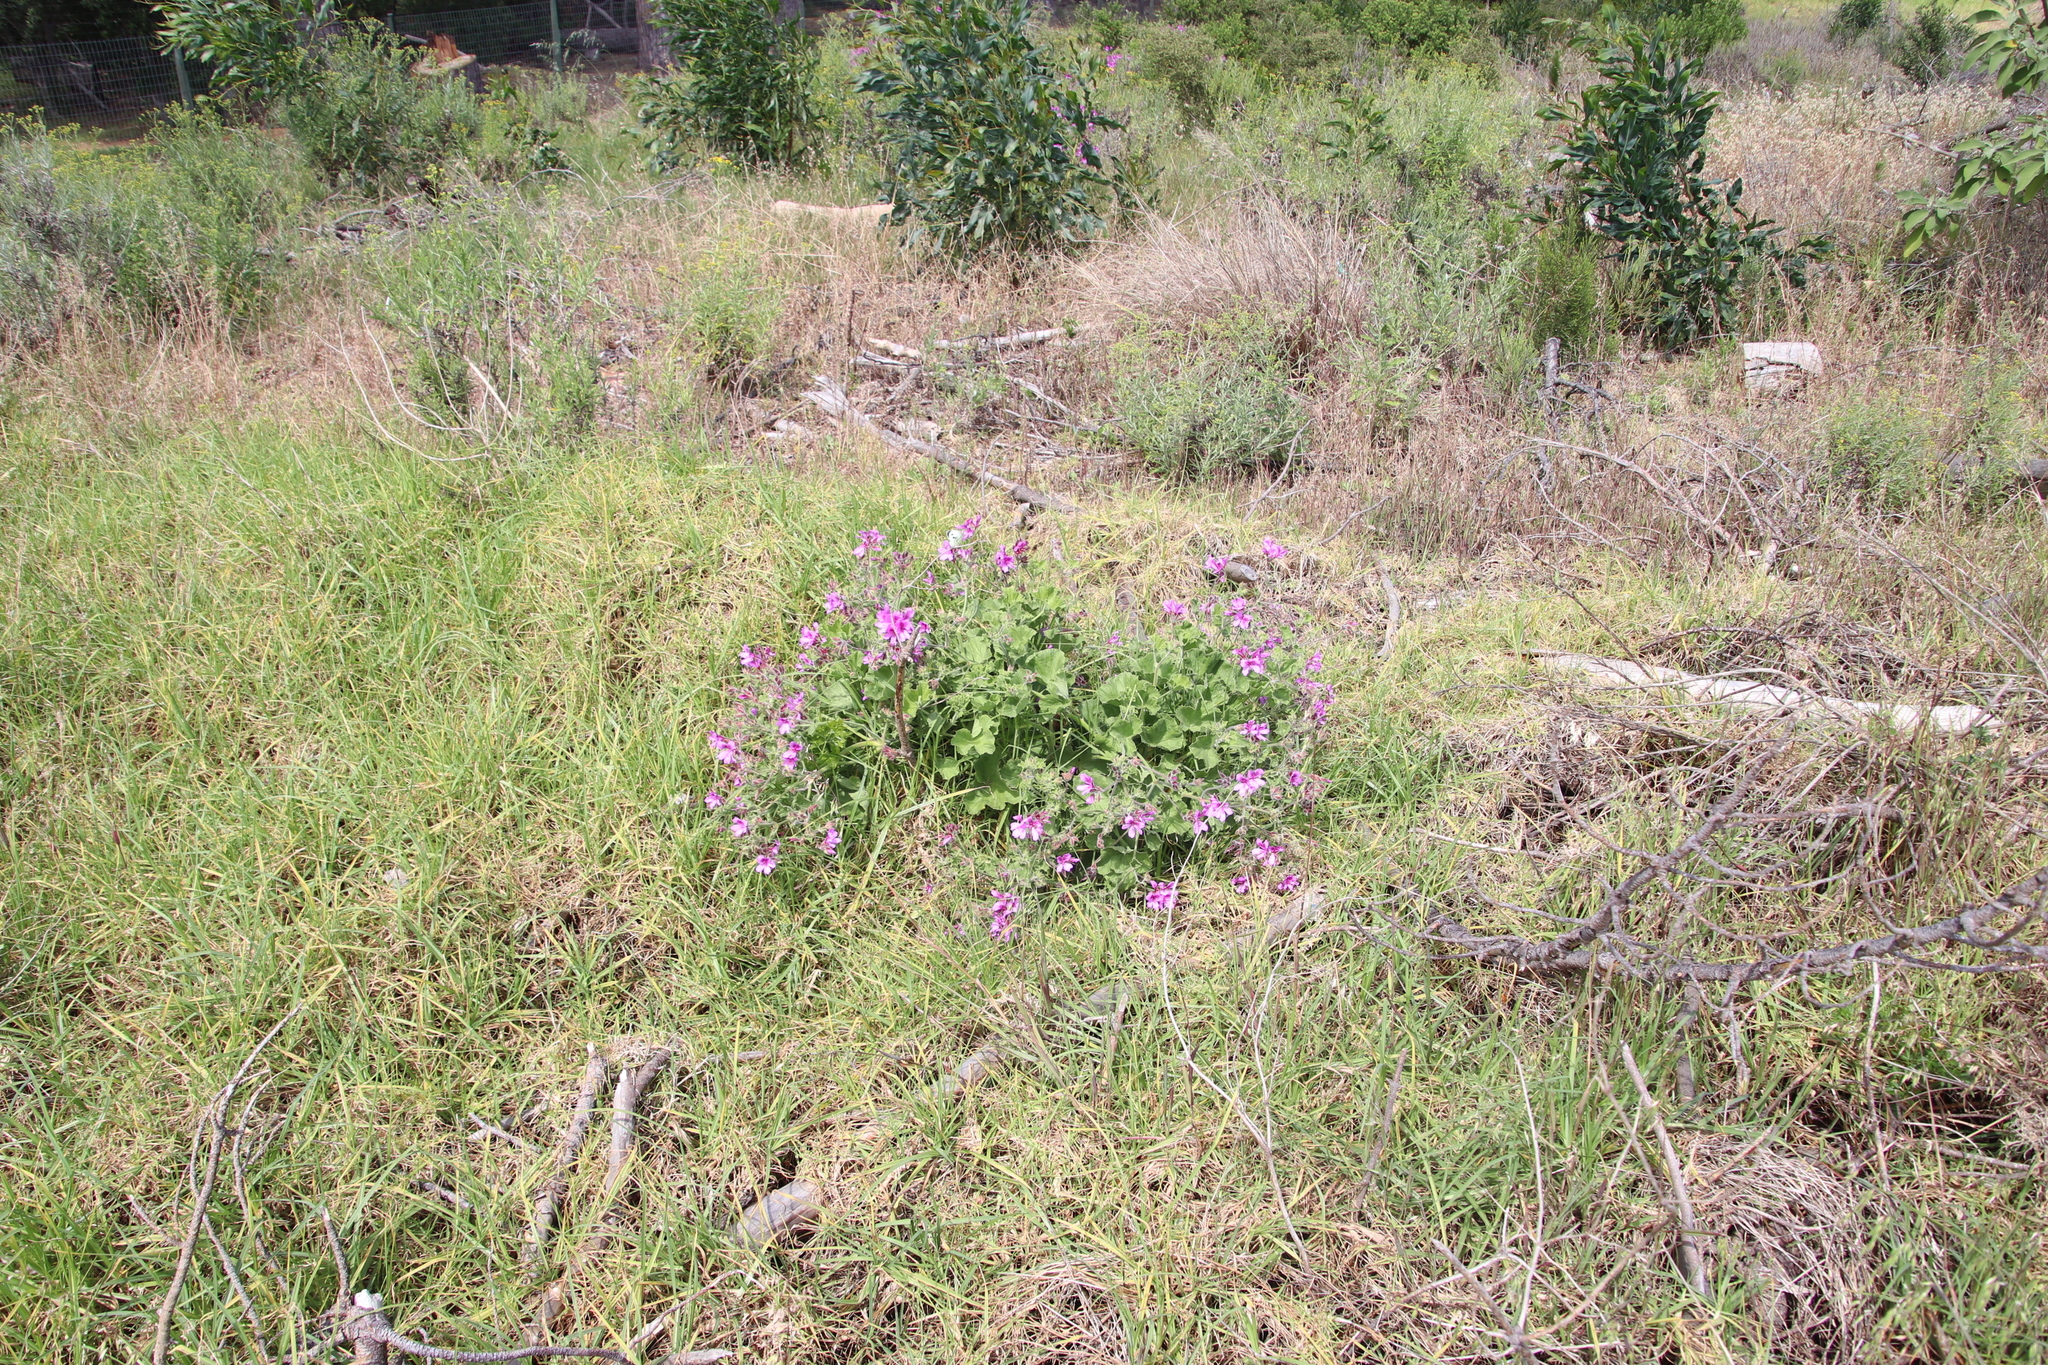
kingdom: Plantae
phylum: Tracheophyta
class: Magnoliopsida
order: Geraniales
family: Geraniaceae
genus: Pelargonium
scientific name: Pelargonium
